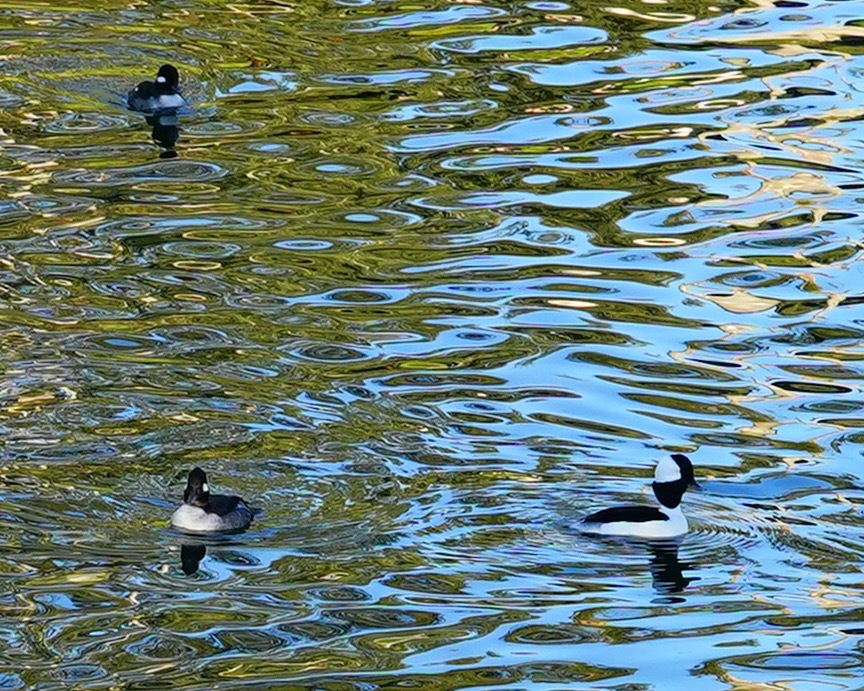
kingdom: Animalia
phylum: Chordata
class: Aves
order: Anseriformes
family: Anatidae
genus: Bucephala
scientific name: Bucephala albeola
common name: Bufflehead
